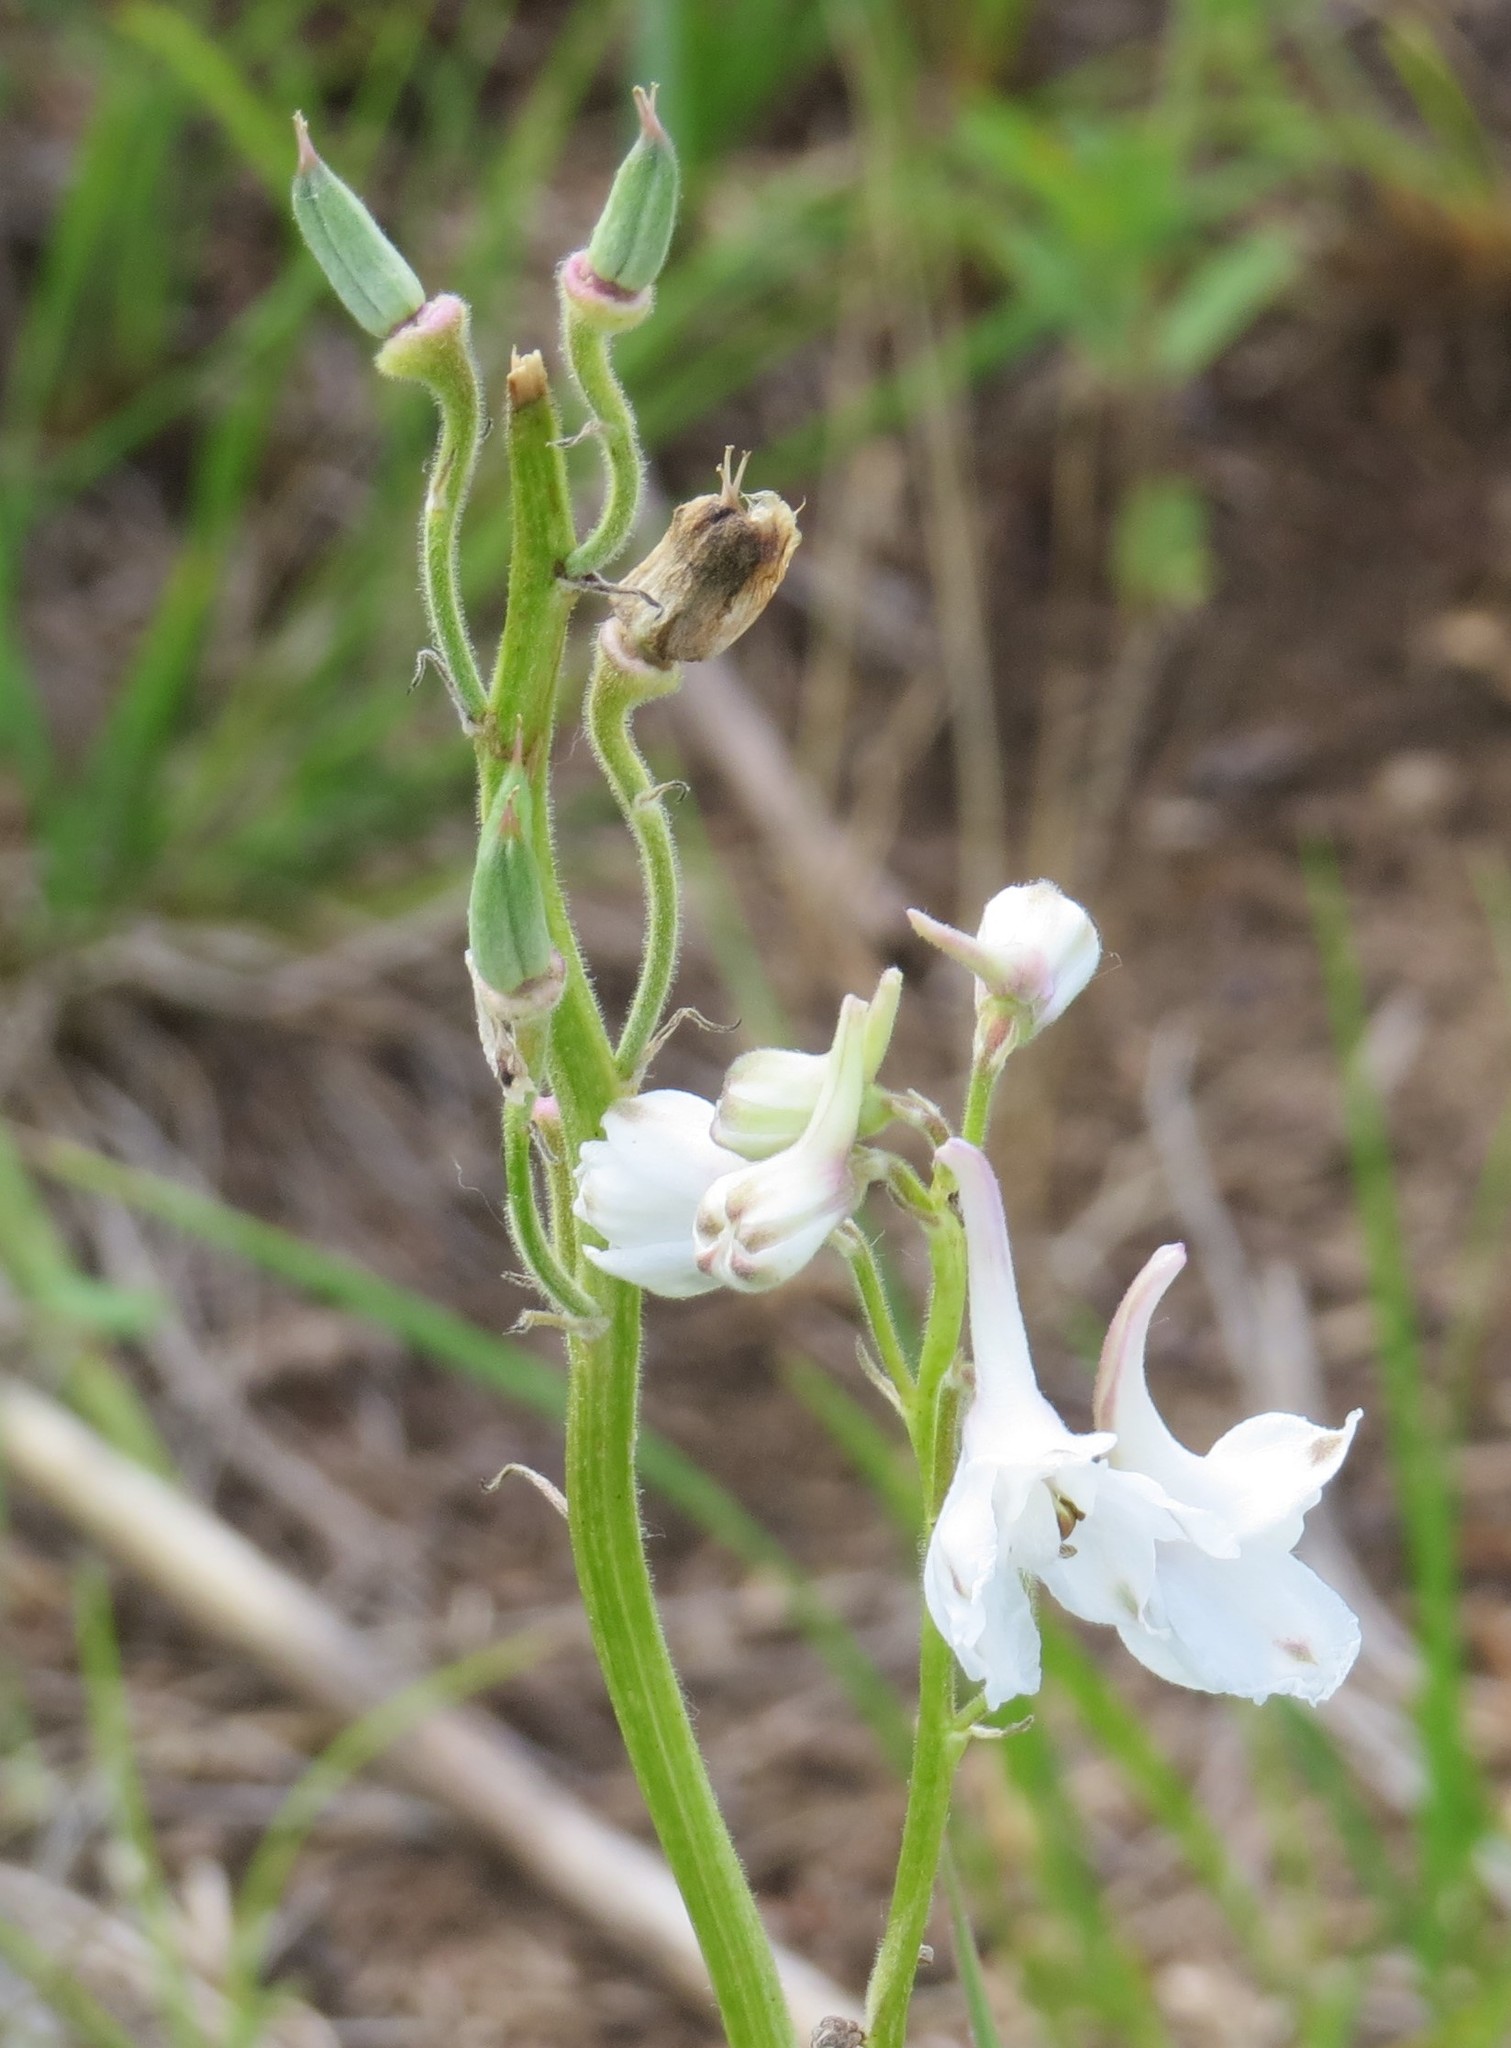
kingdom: Plantae
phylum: Tracheophyta
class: Magnoliopsida
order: Ranunculales
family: Ranunculaceae
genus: Delphinium
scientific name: Delphinium carolinianum
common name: Carolina larkspur
